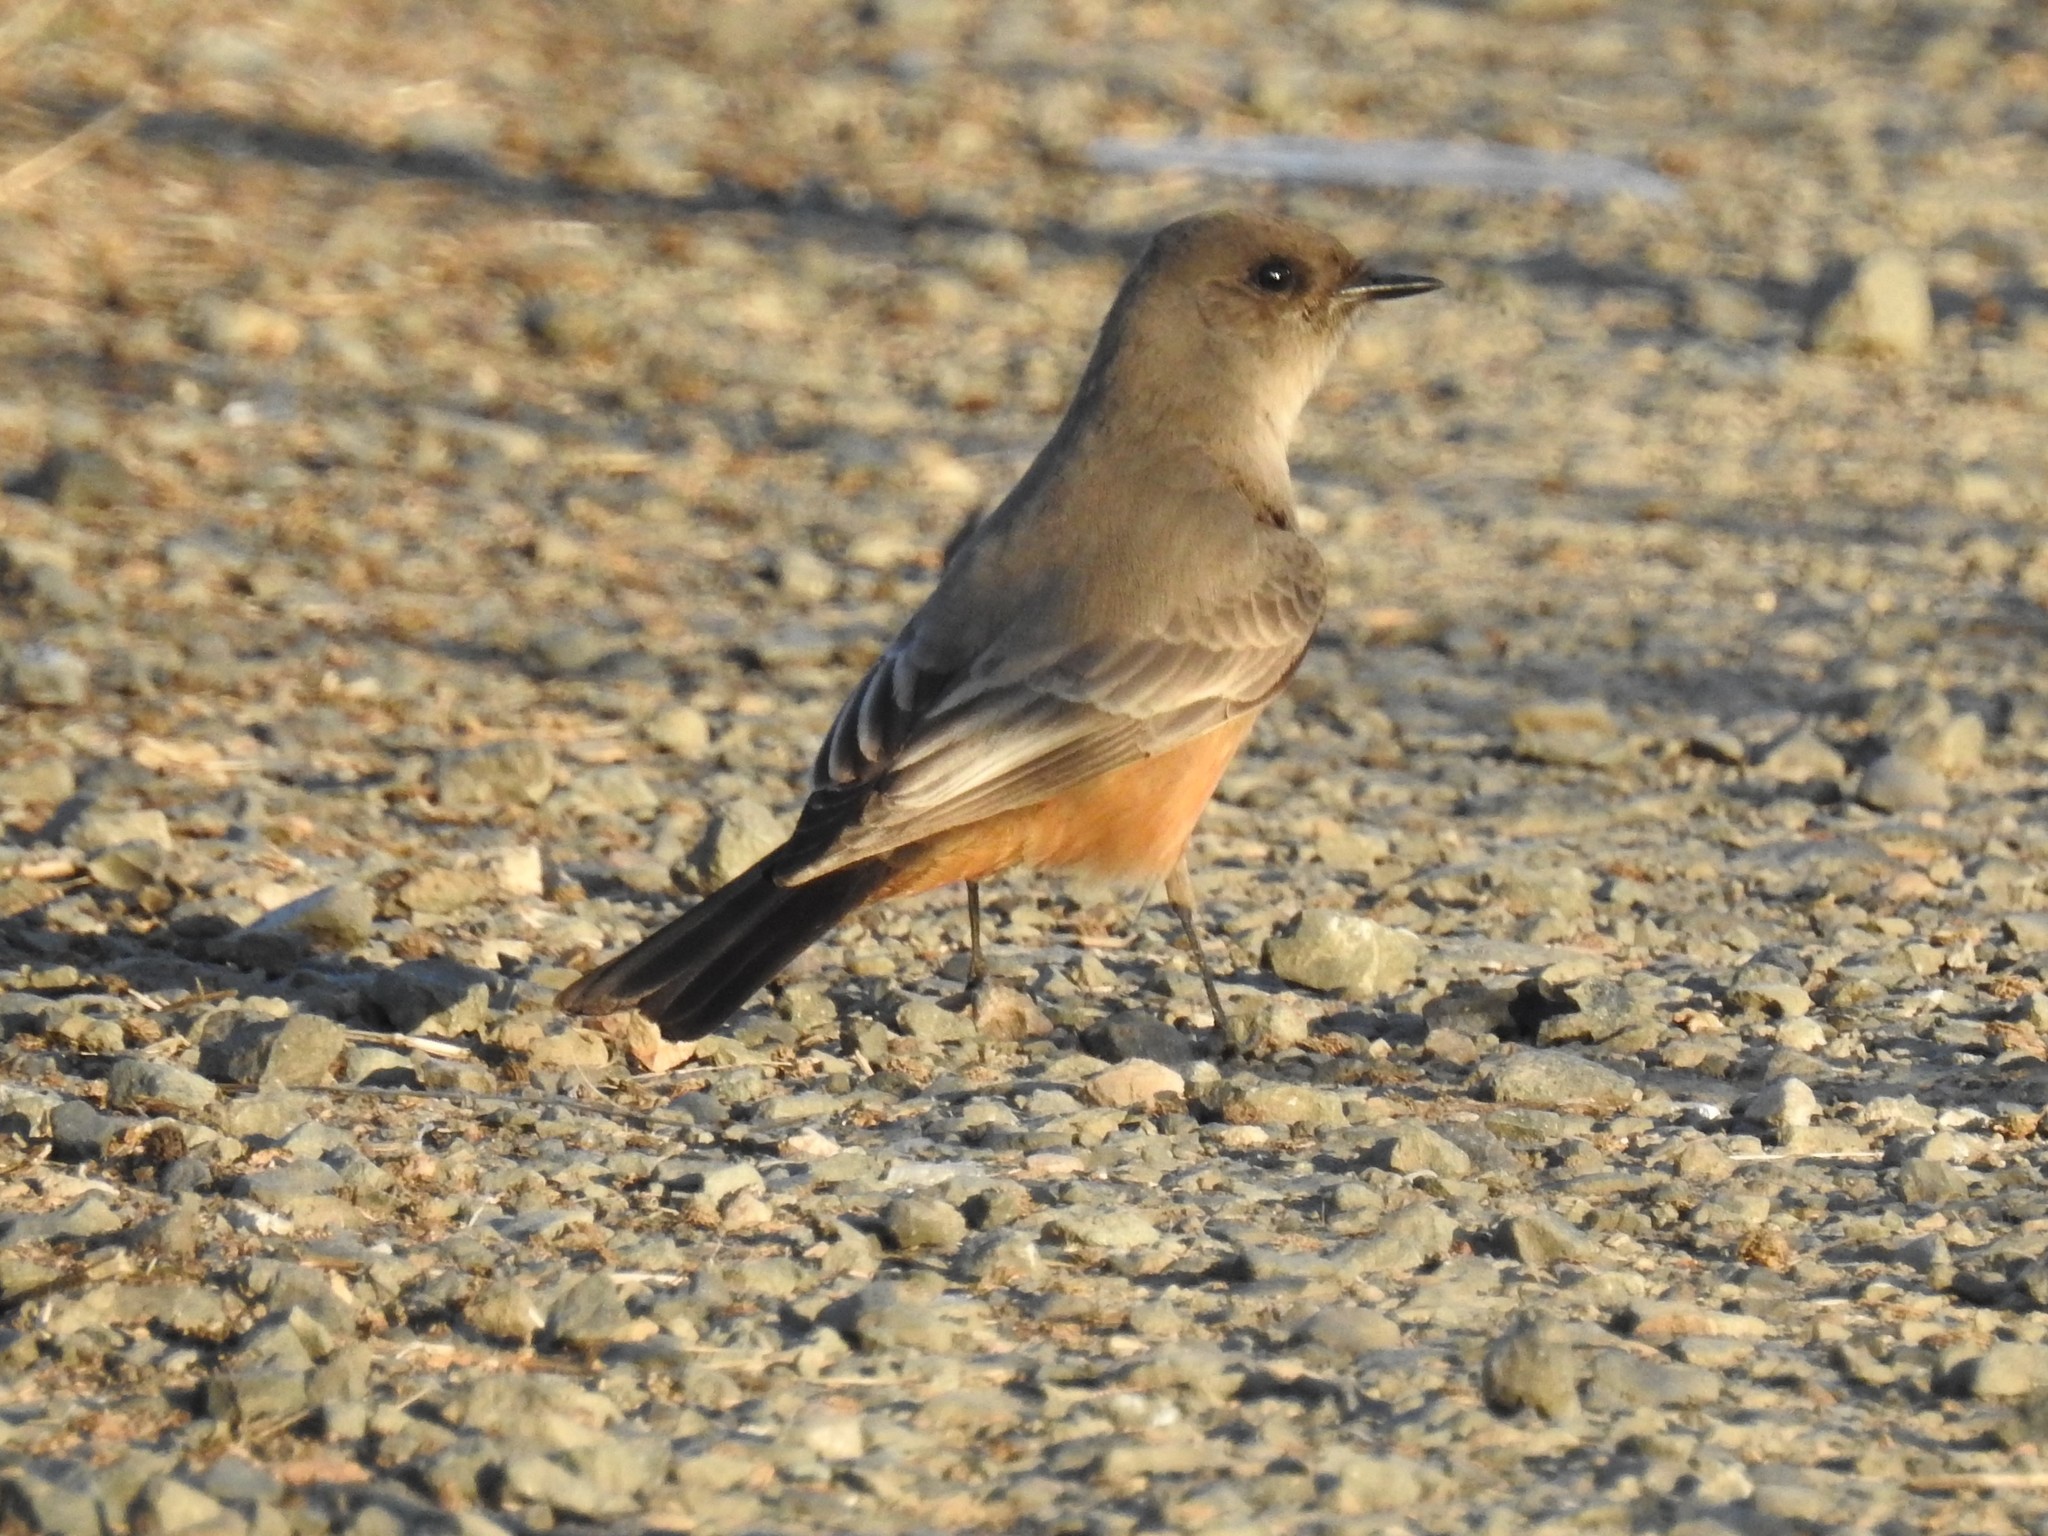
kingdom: Animalia
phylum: Chordata
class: Aves
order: Passeriformes
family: Tyrannidae
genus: Sayornis
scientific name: Sayornis saya
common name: Say's phoebe
